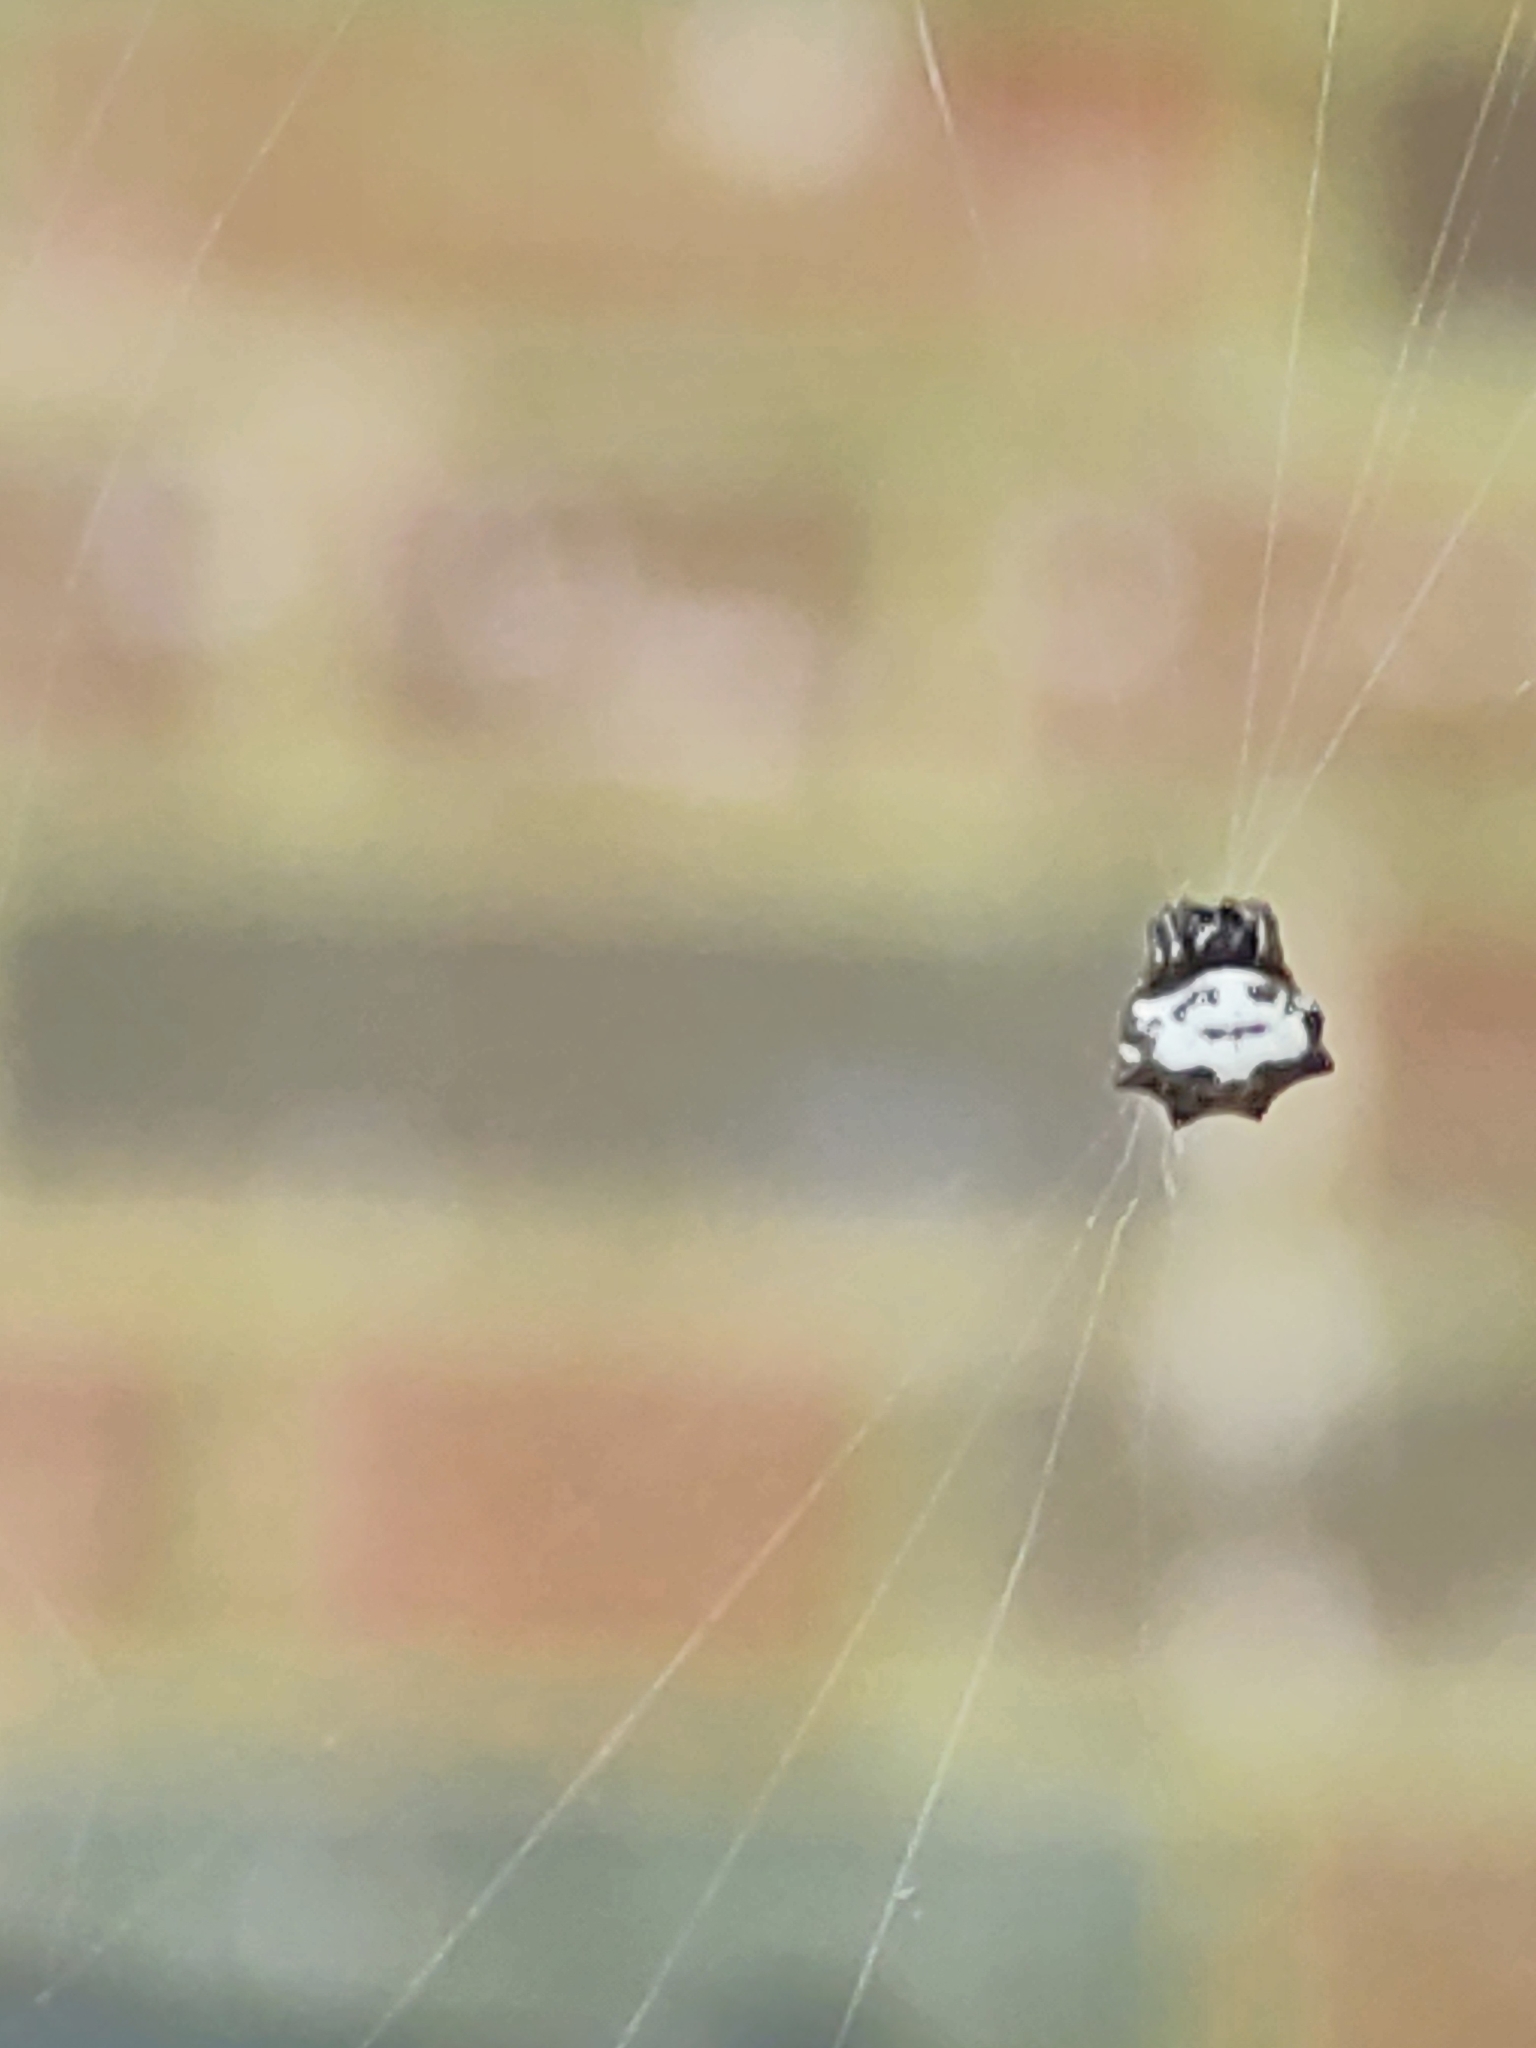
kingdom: Animalia
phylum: Arthropoda
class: Arachnida
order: Araneae
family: Araneidae
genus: Gasteracantha
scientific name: Gasteracantha cancriformis
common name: Orb weavers
